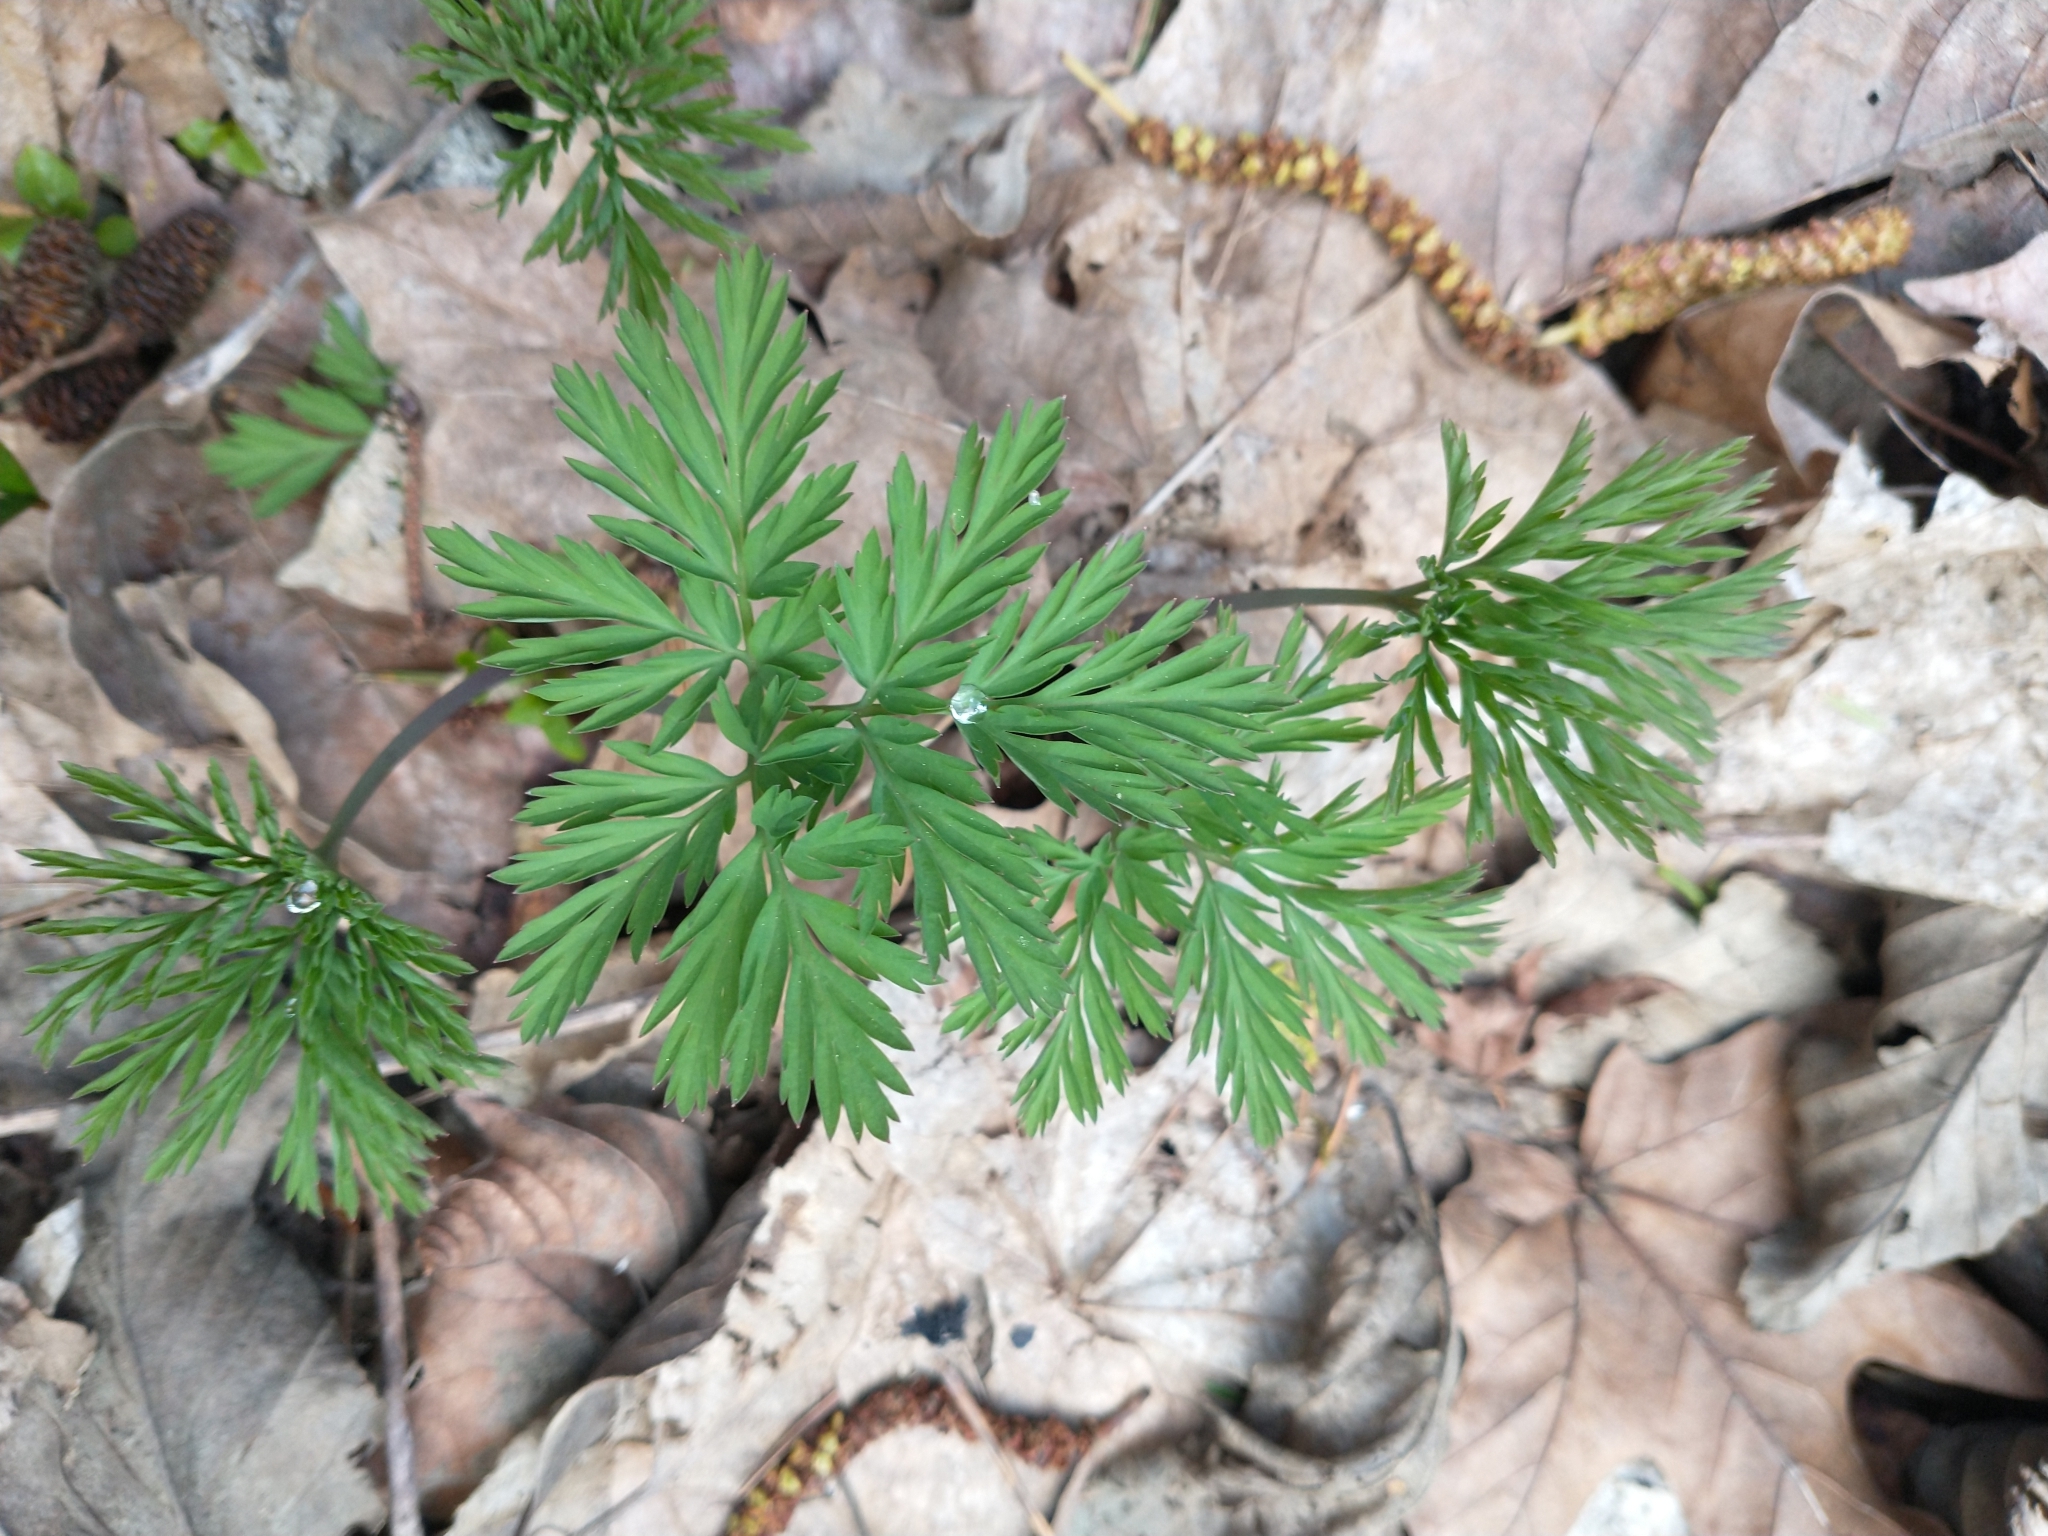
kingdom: Plantae
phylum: Tracheophyta
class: Magnoliopsida
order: Ranunculales
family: Papaveraceae
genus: Dicentra
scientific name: Dicentra formosa
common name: Bleeding-heart
